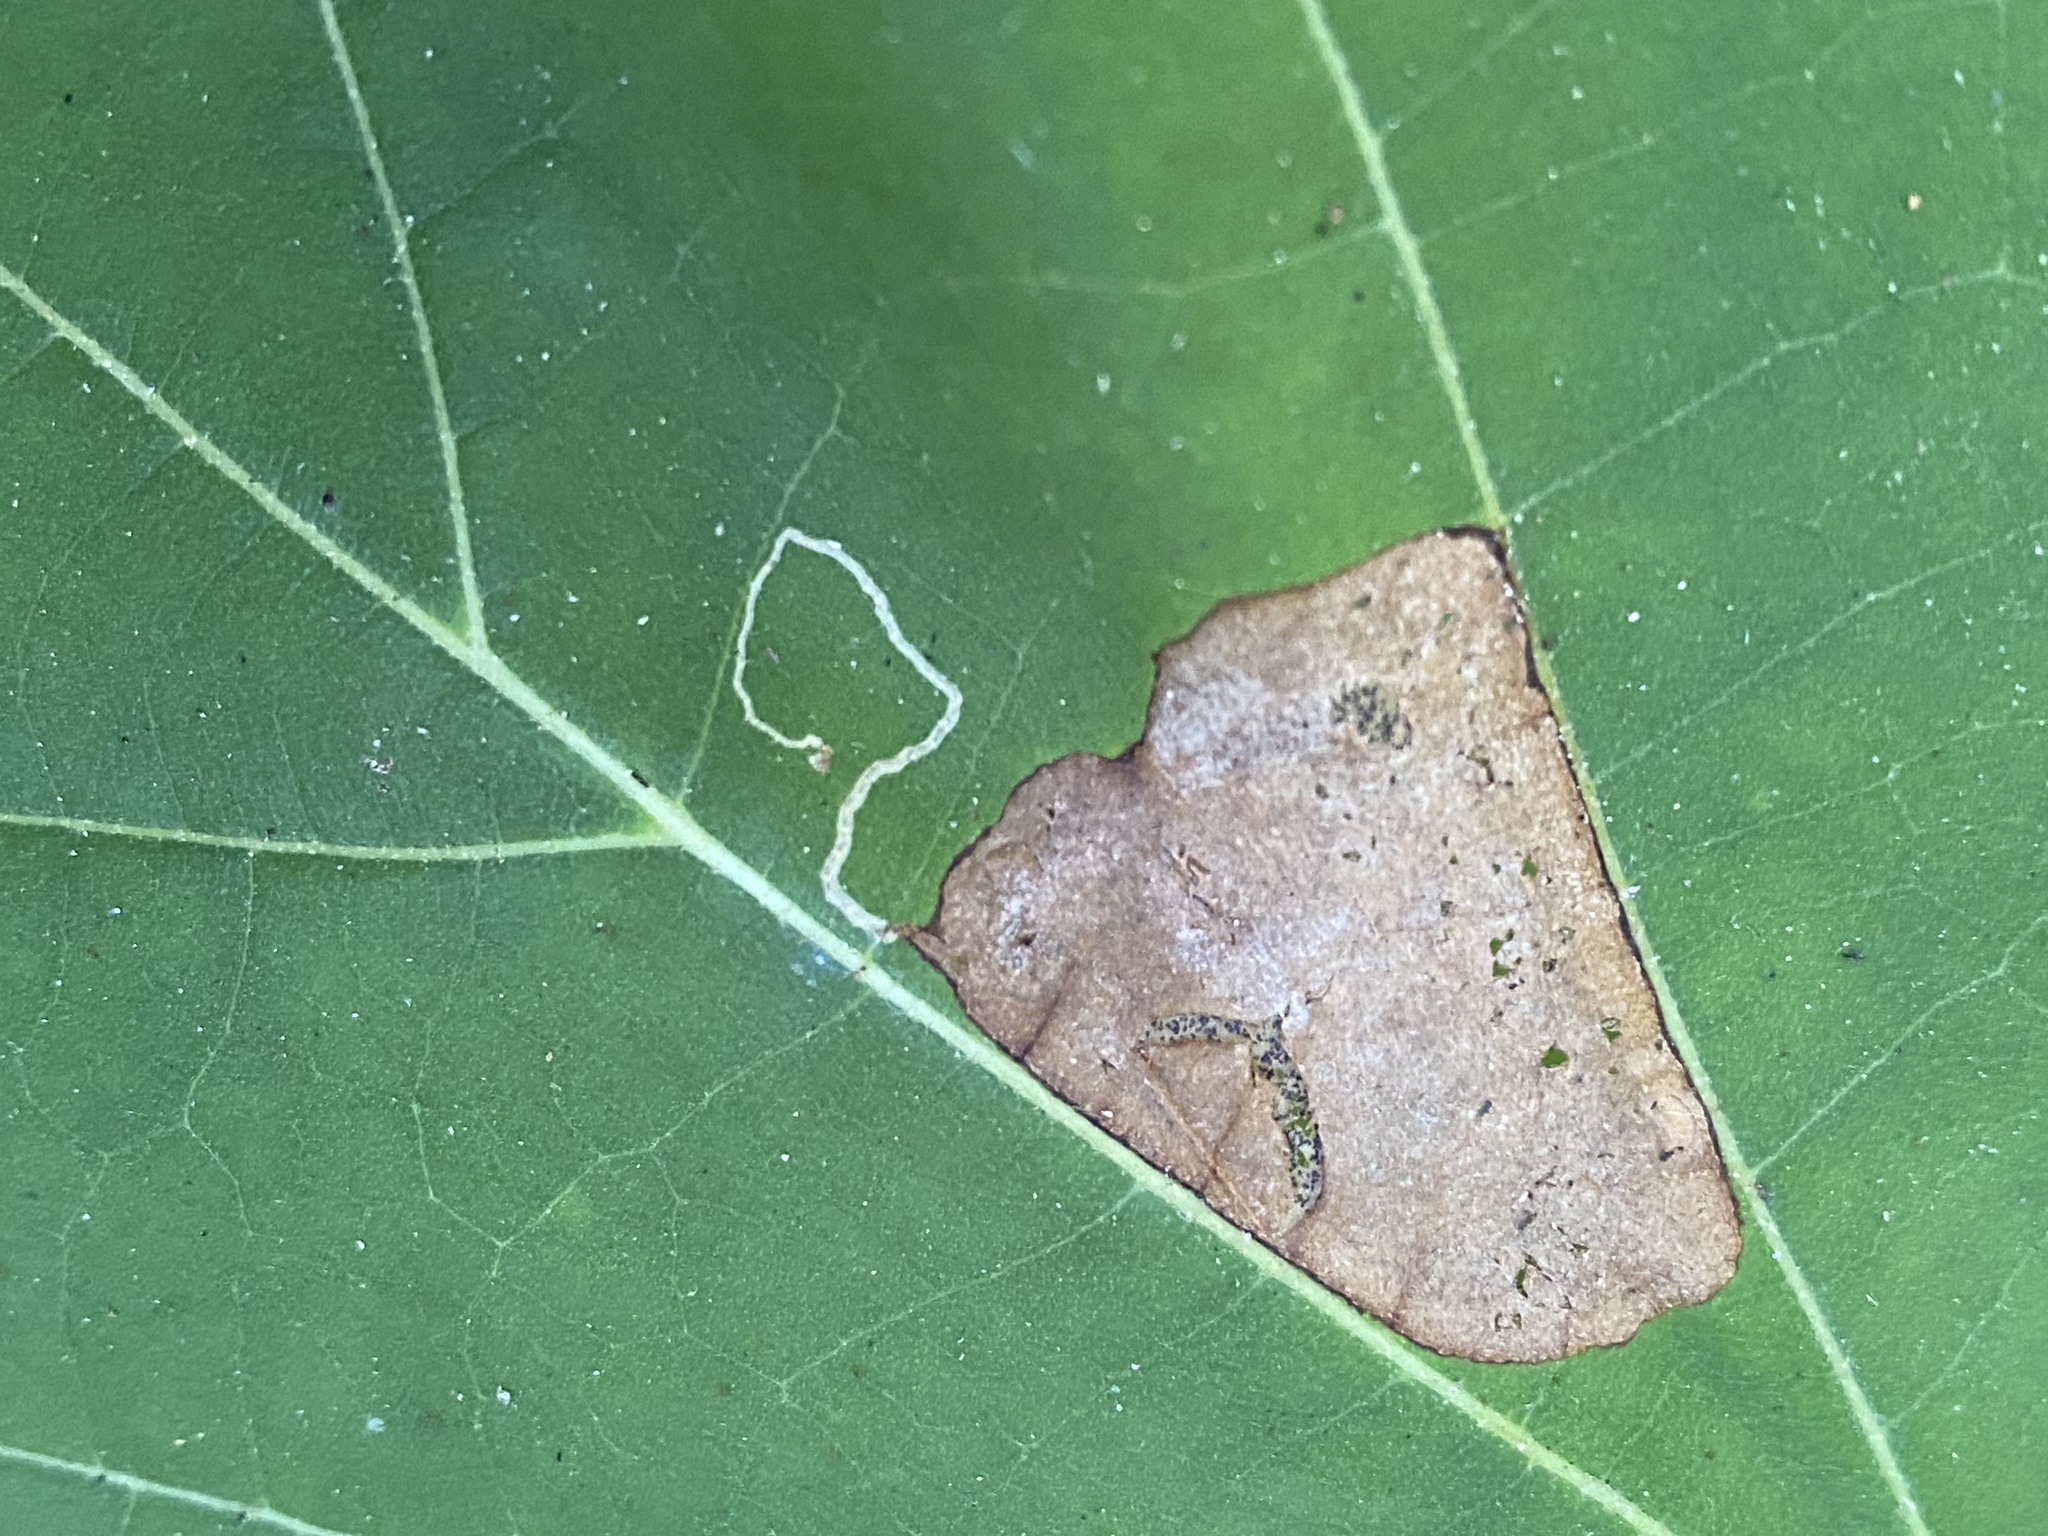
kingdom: Animalia
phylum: Arthropoda
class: Insecta
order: Lepidoptera
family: Nepticulidae
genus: Ectoedemia
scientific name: Ectoedemia platanella
